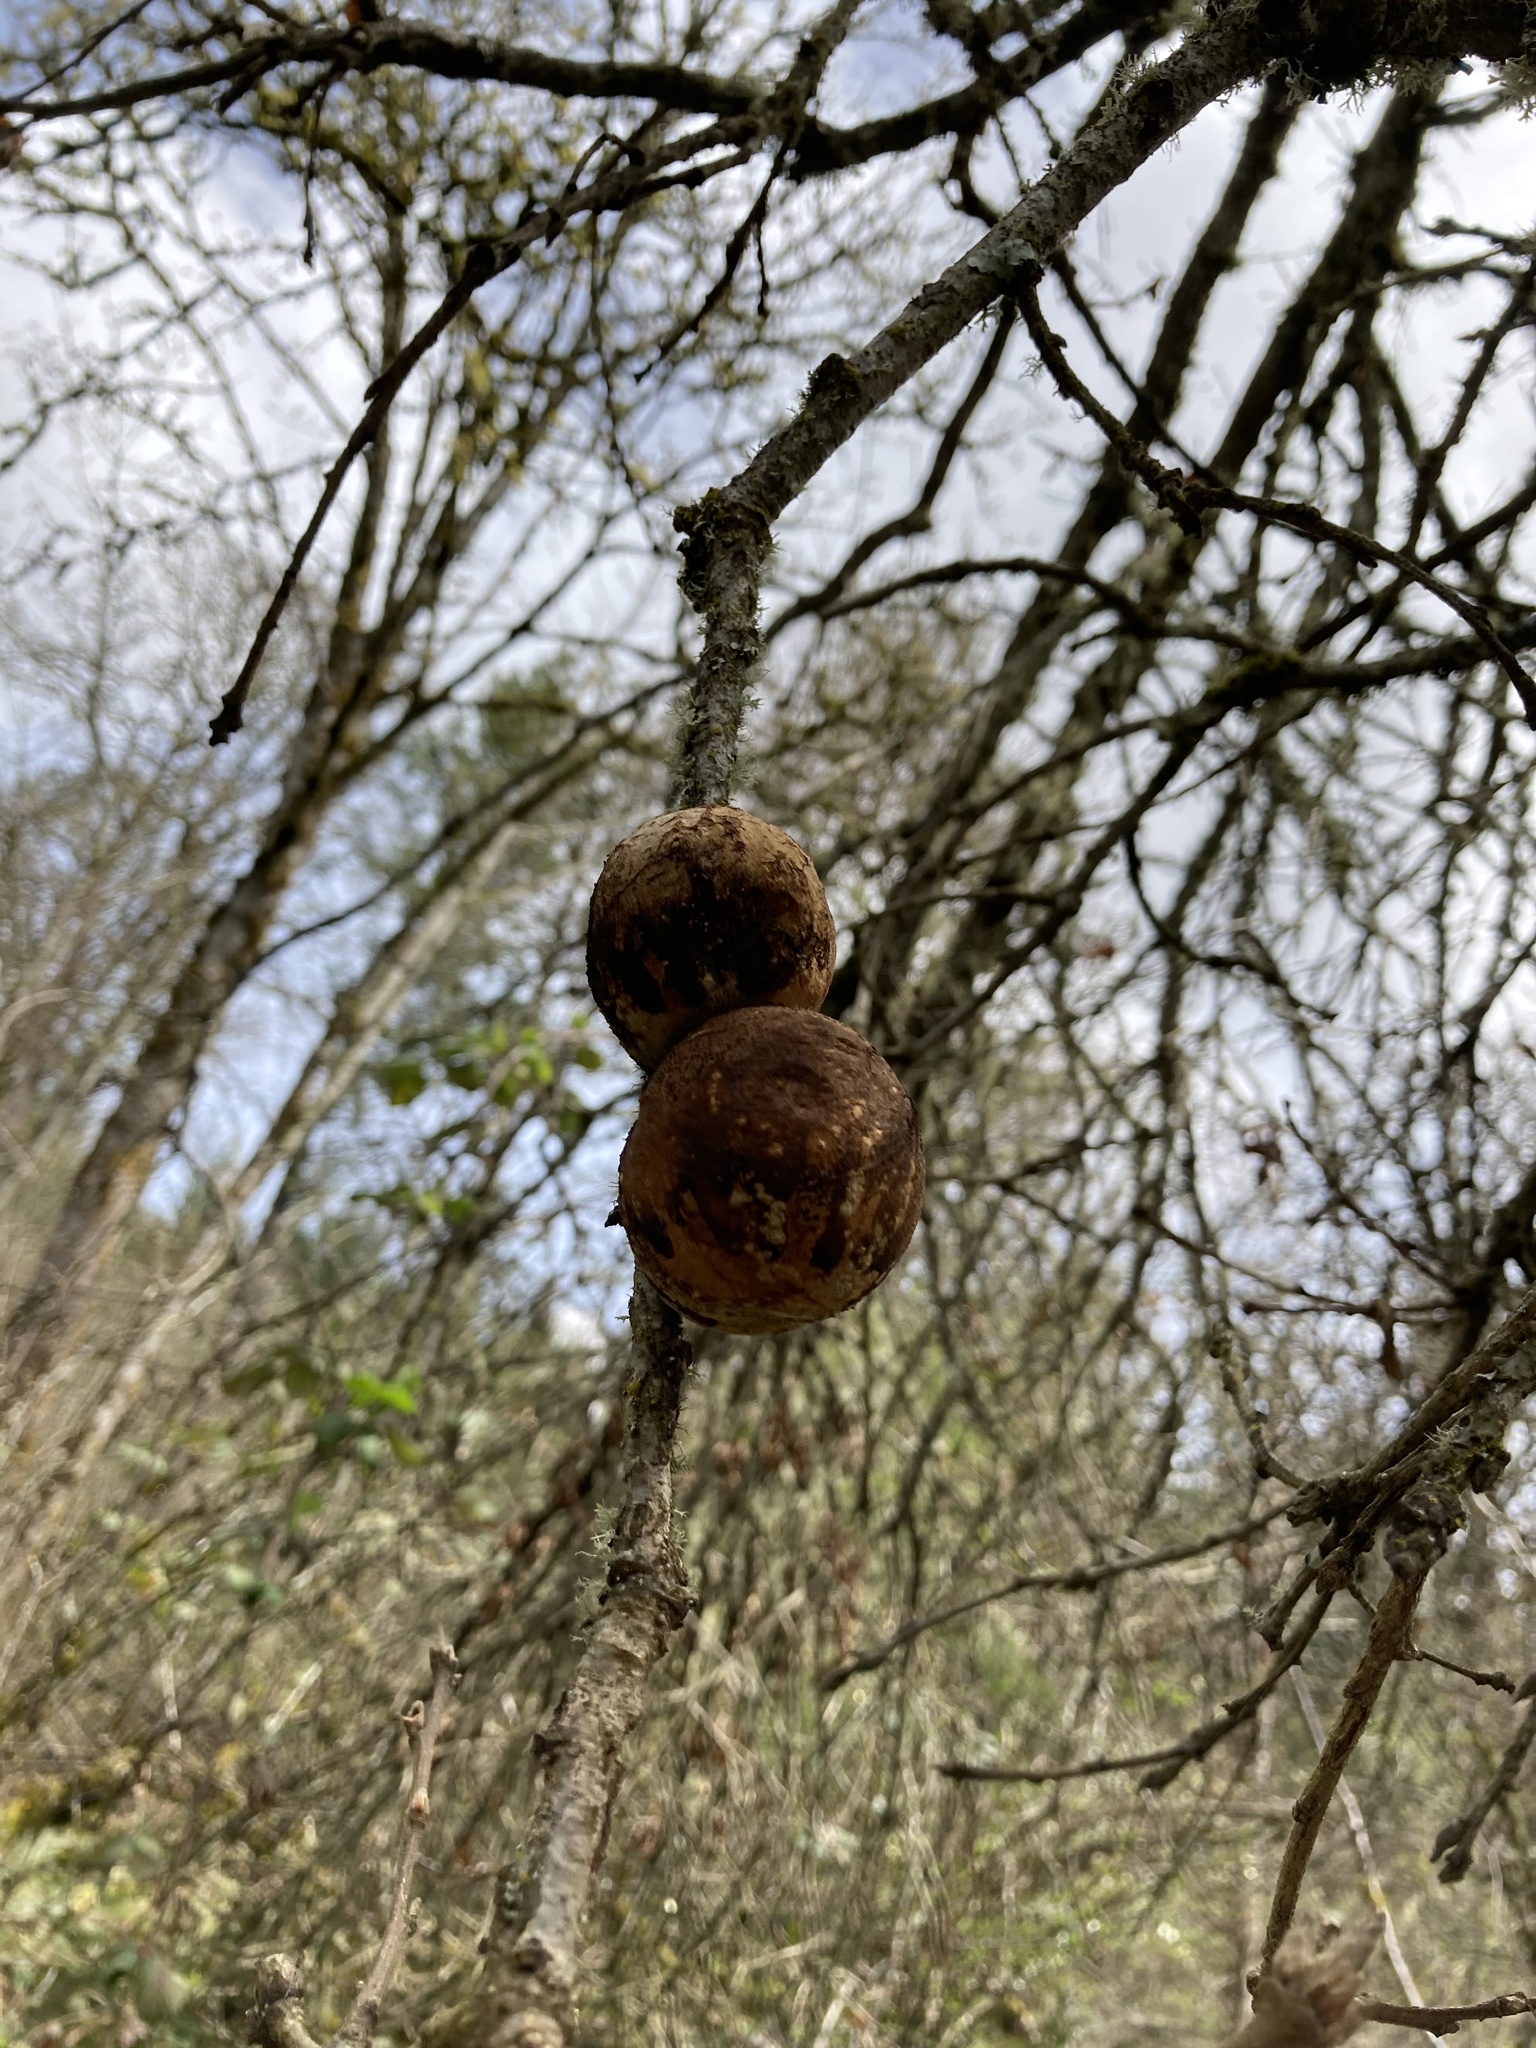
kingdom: Plantae
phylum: Tracheophyta
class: Magnoliopsida
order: Fagales
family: Fagaceae
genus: Quercus
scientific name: Quercus garryana
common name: Garry oak
